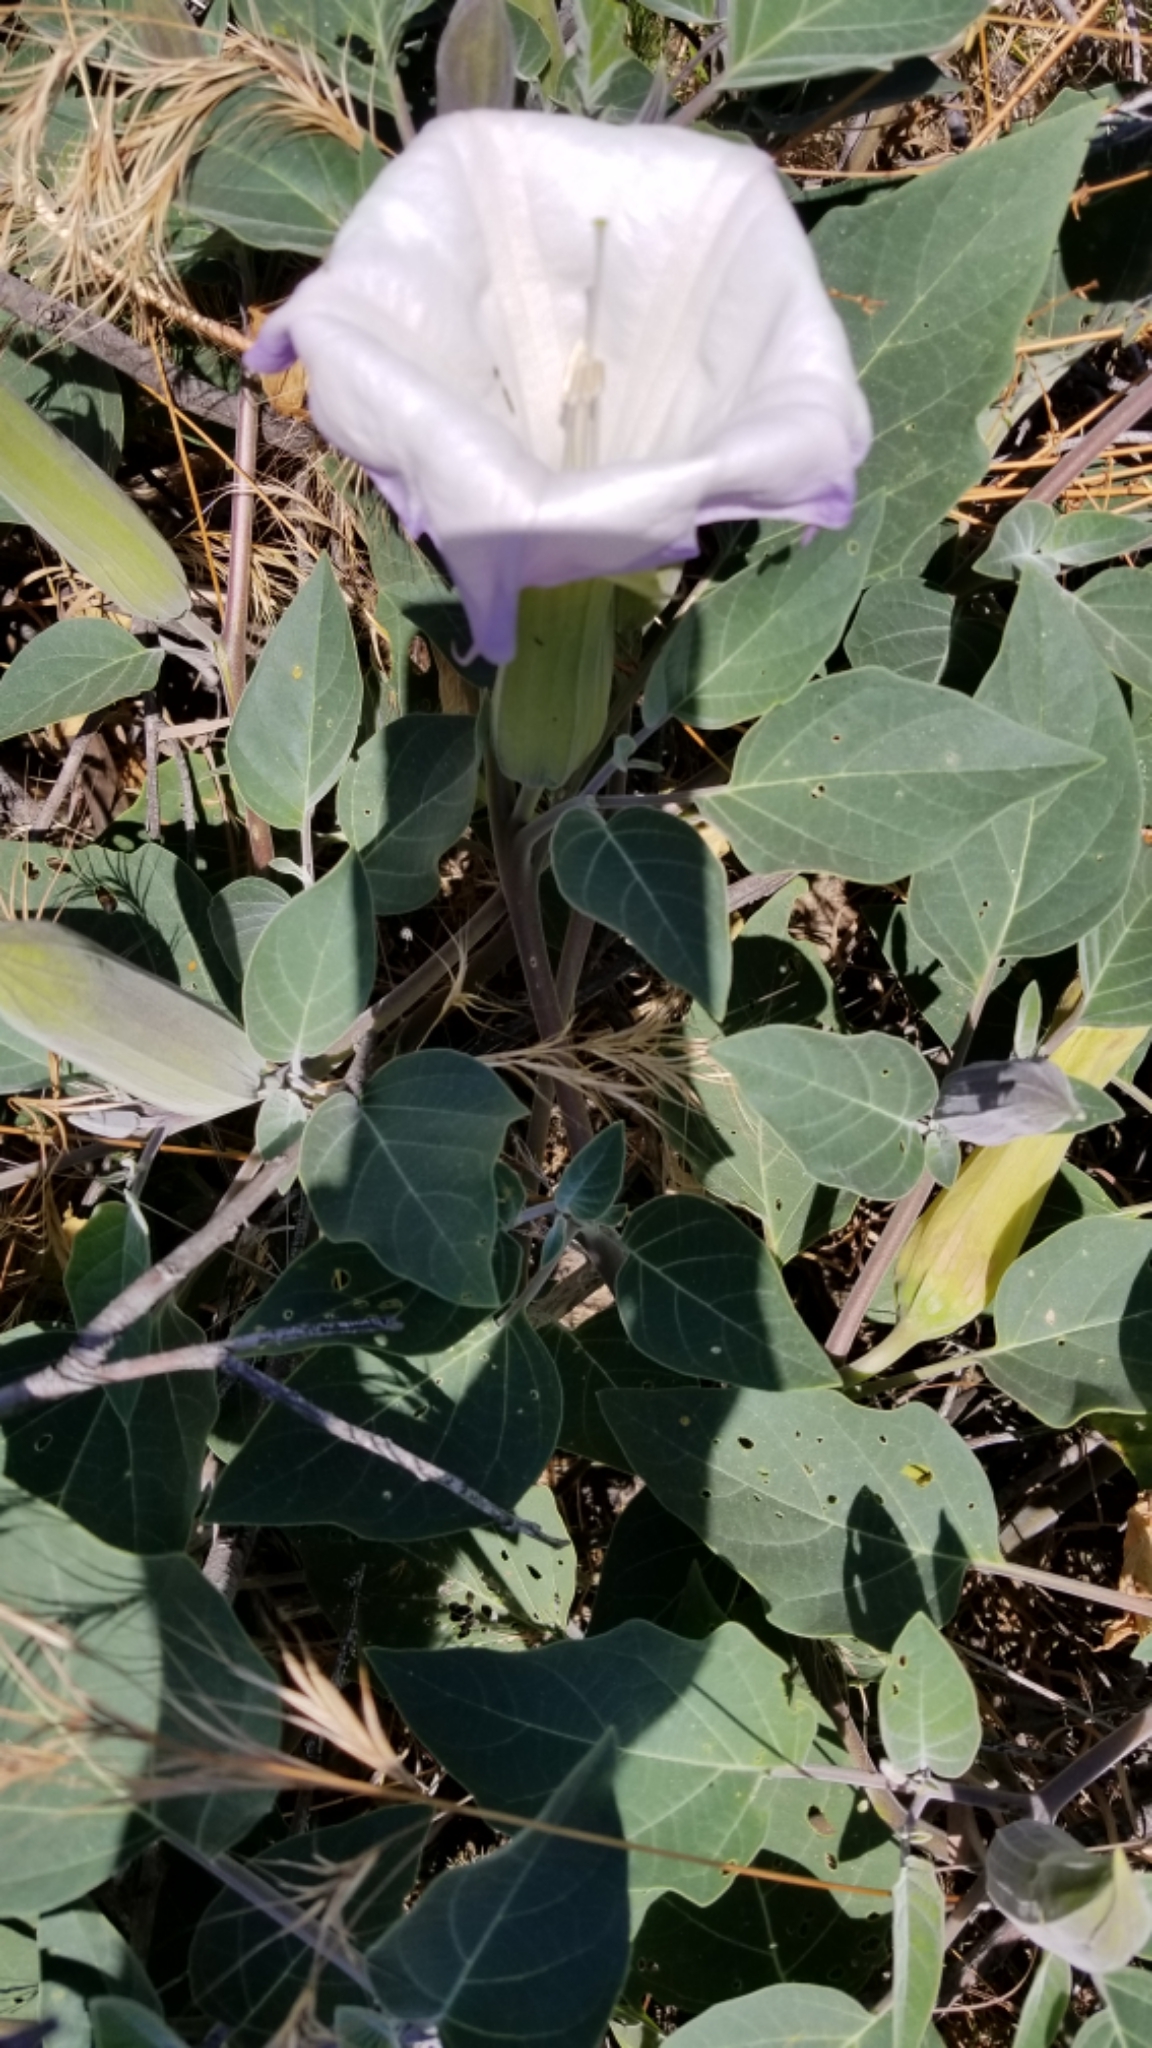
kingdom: Plantae
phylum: Tracheophyta
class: Magnoliopsida
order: Solanales
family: Solanaceae
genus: Datura
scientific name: Datura wrightii
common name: Sacred thorn-apple
